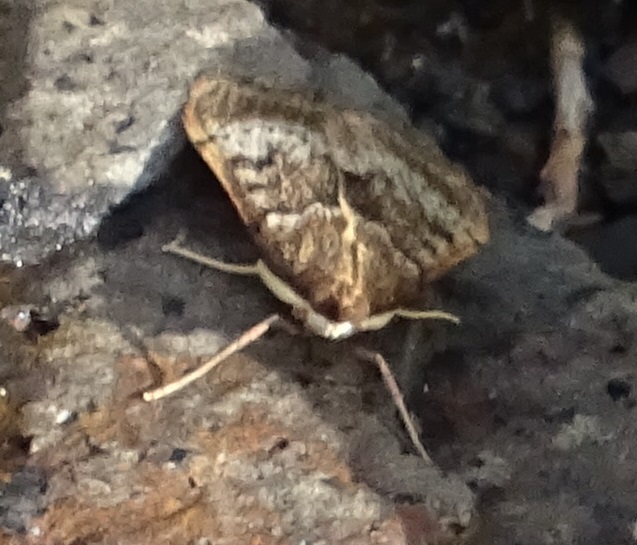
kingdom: Animalia
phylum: Arthropoda
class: Insecta
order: Lepidoptera
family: Crambidae
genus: Uresiphita
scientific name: Uresiphita gilvata
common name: Yellow-underwing pearl
